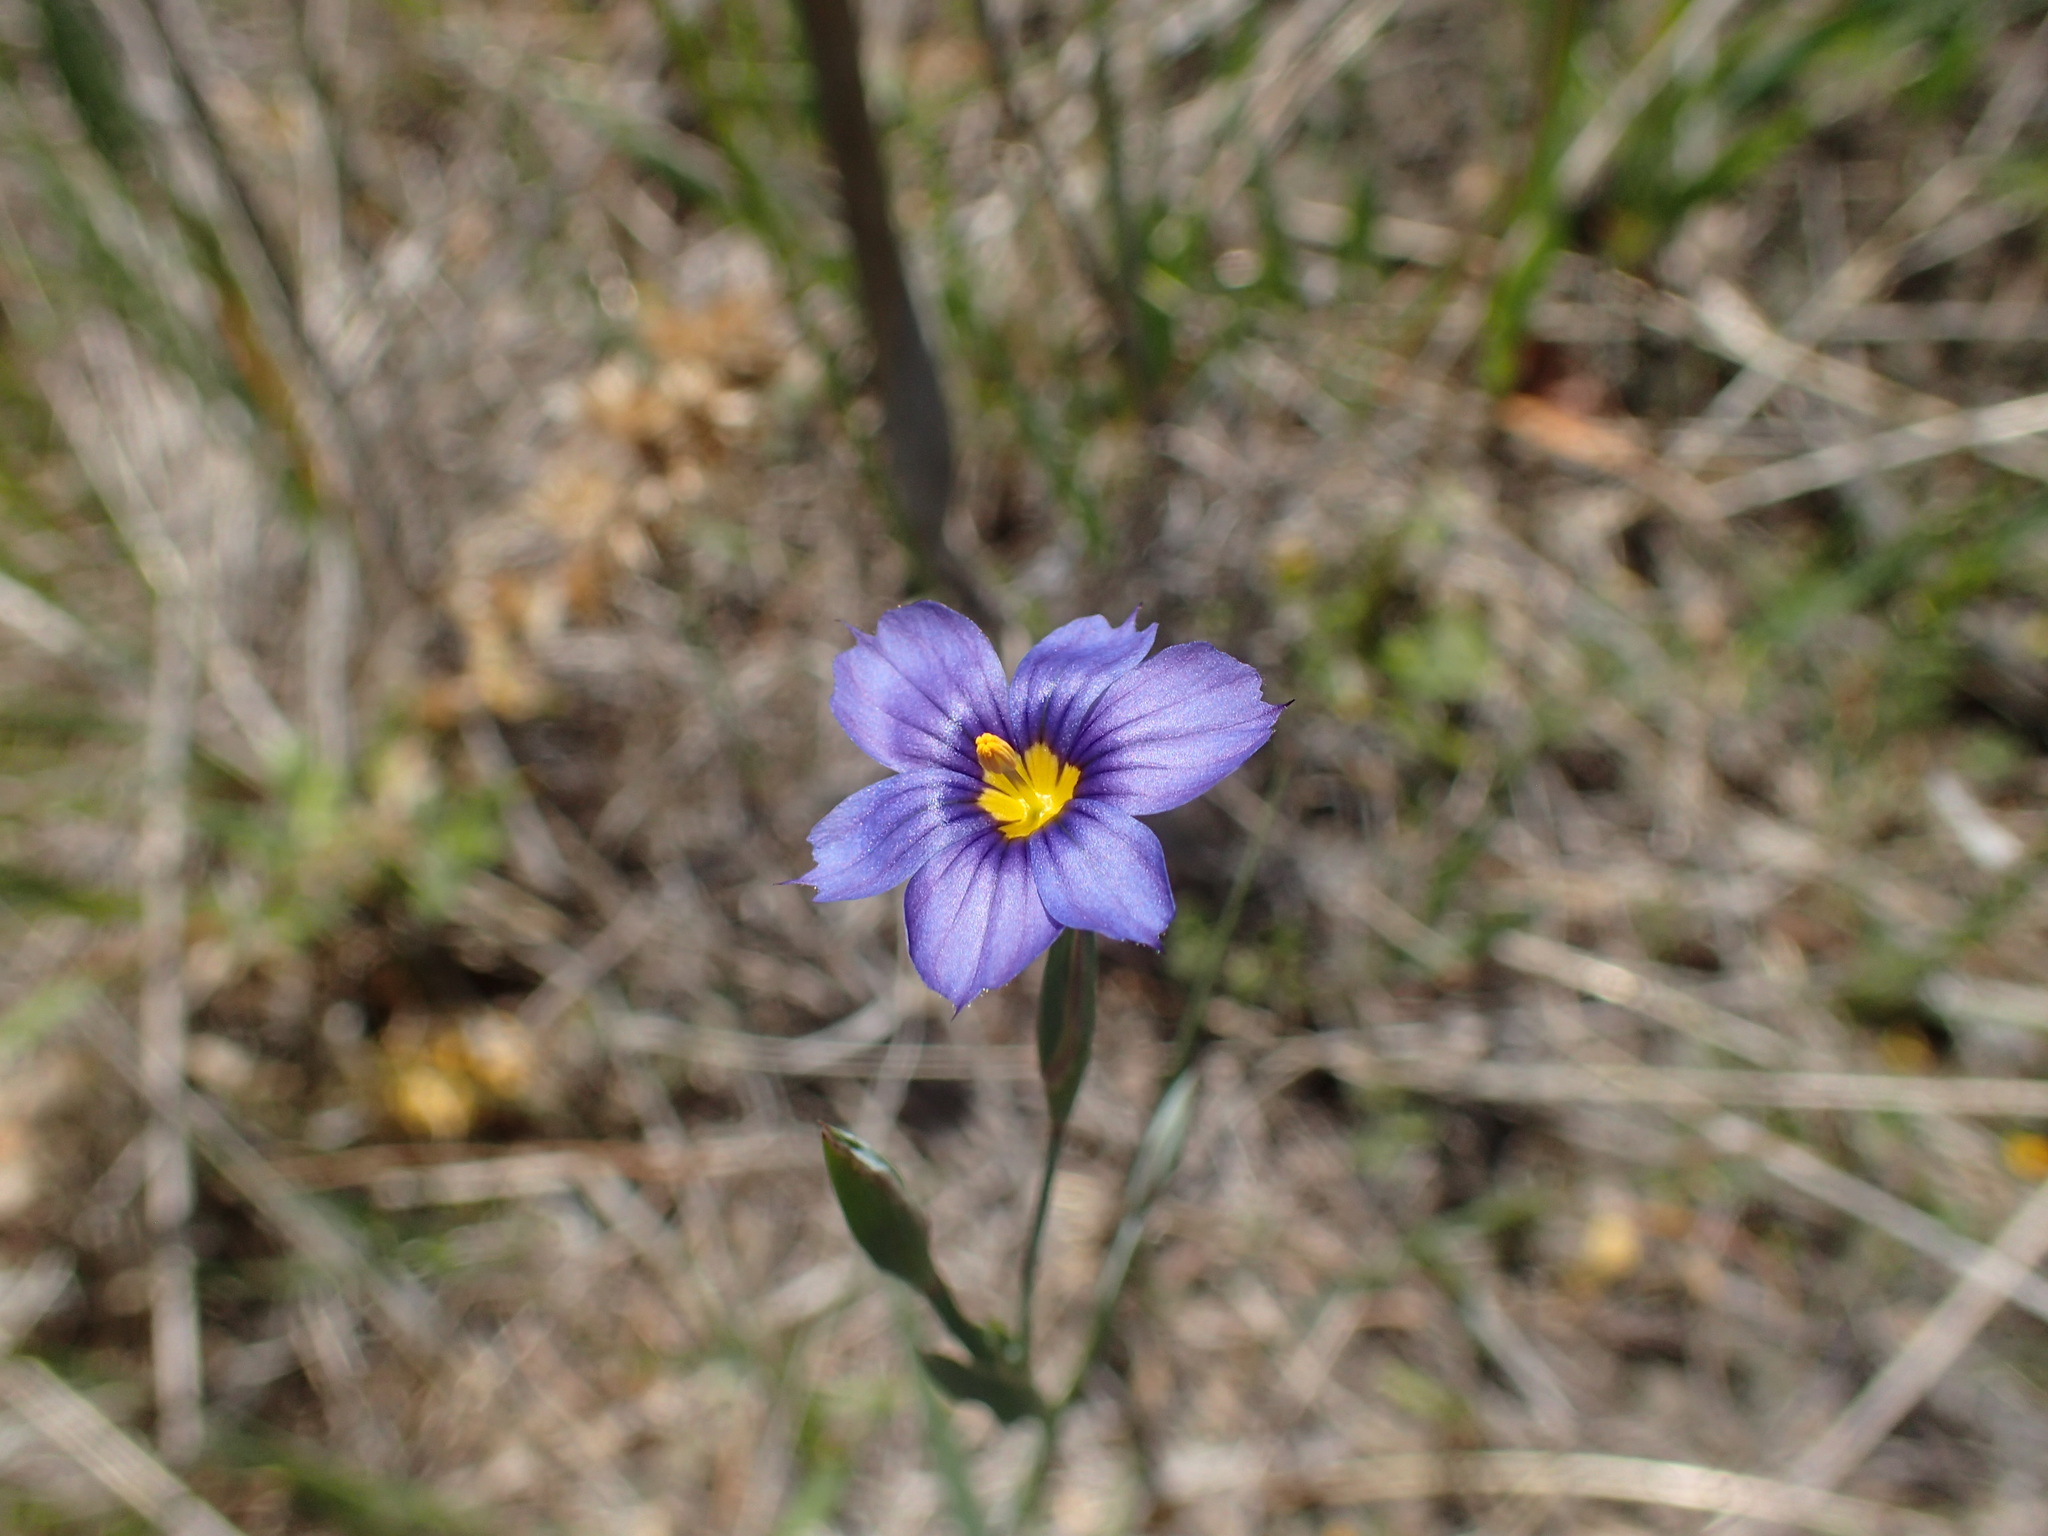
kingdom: Plantae
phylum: Tracheophyta
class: Liliopsida
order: Asparagales
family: Iridaceae
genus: Sisyrinchium
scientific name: Sisyrinchium bellum
